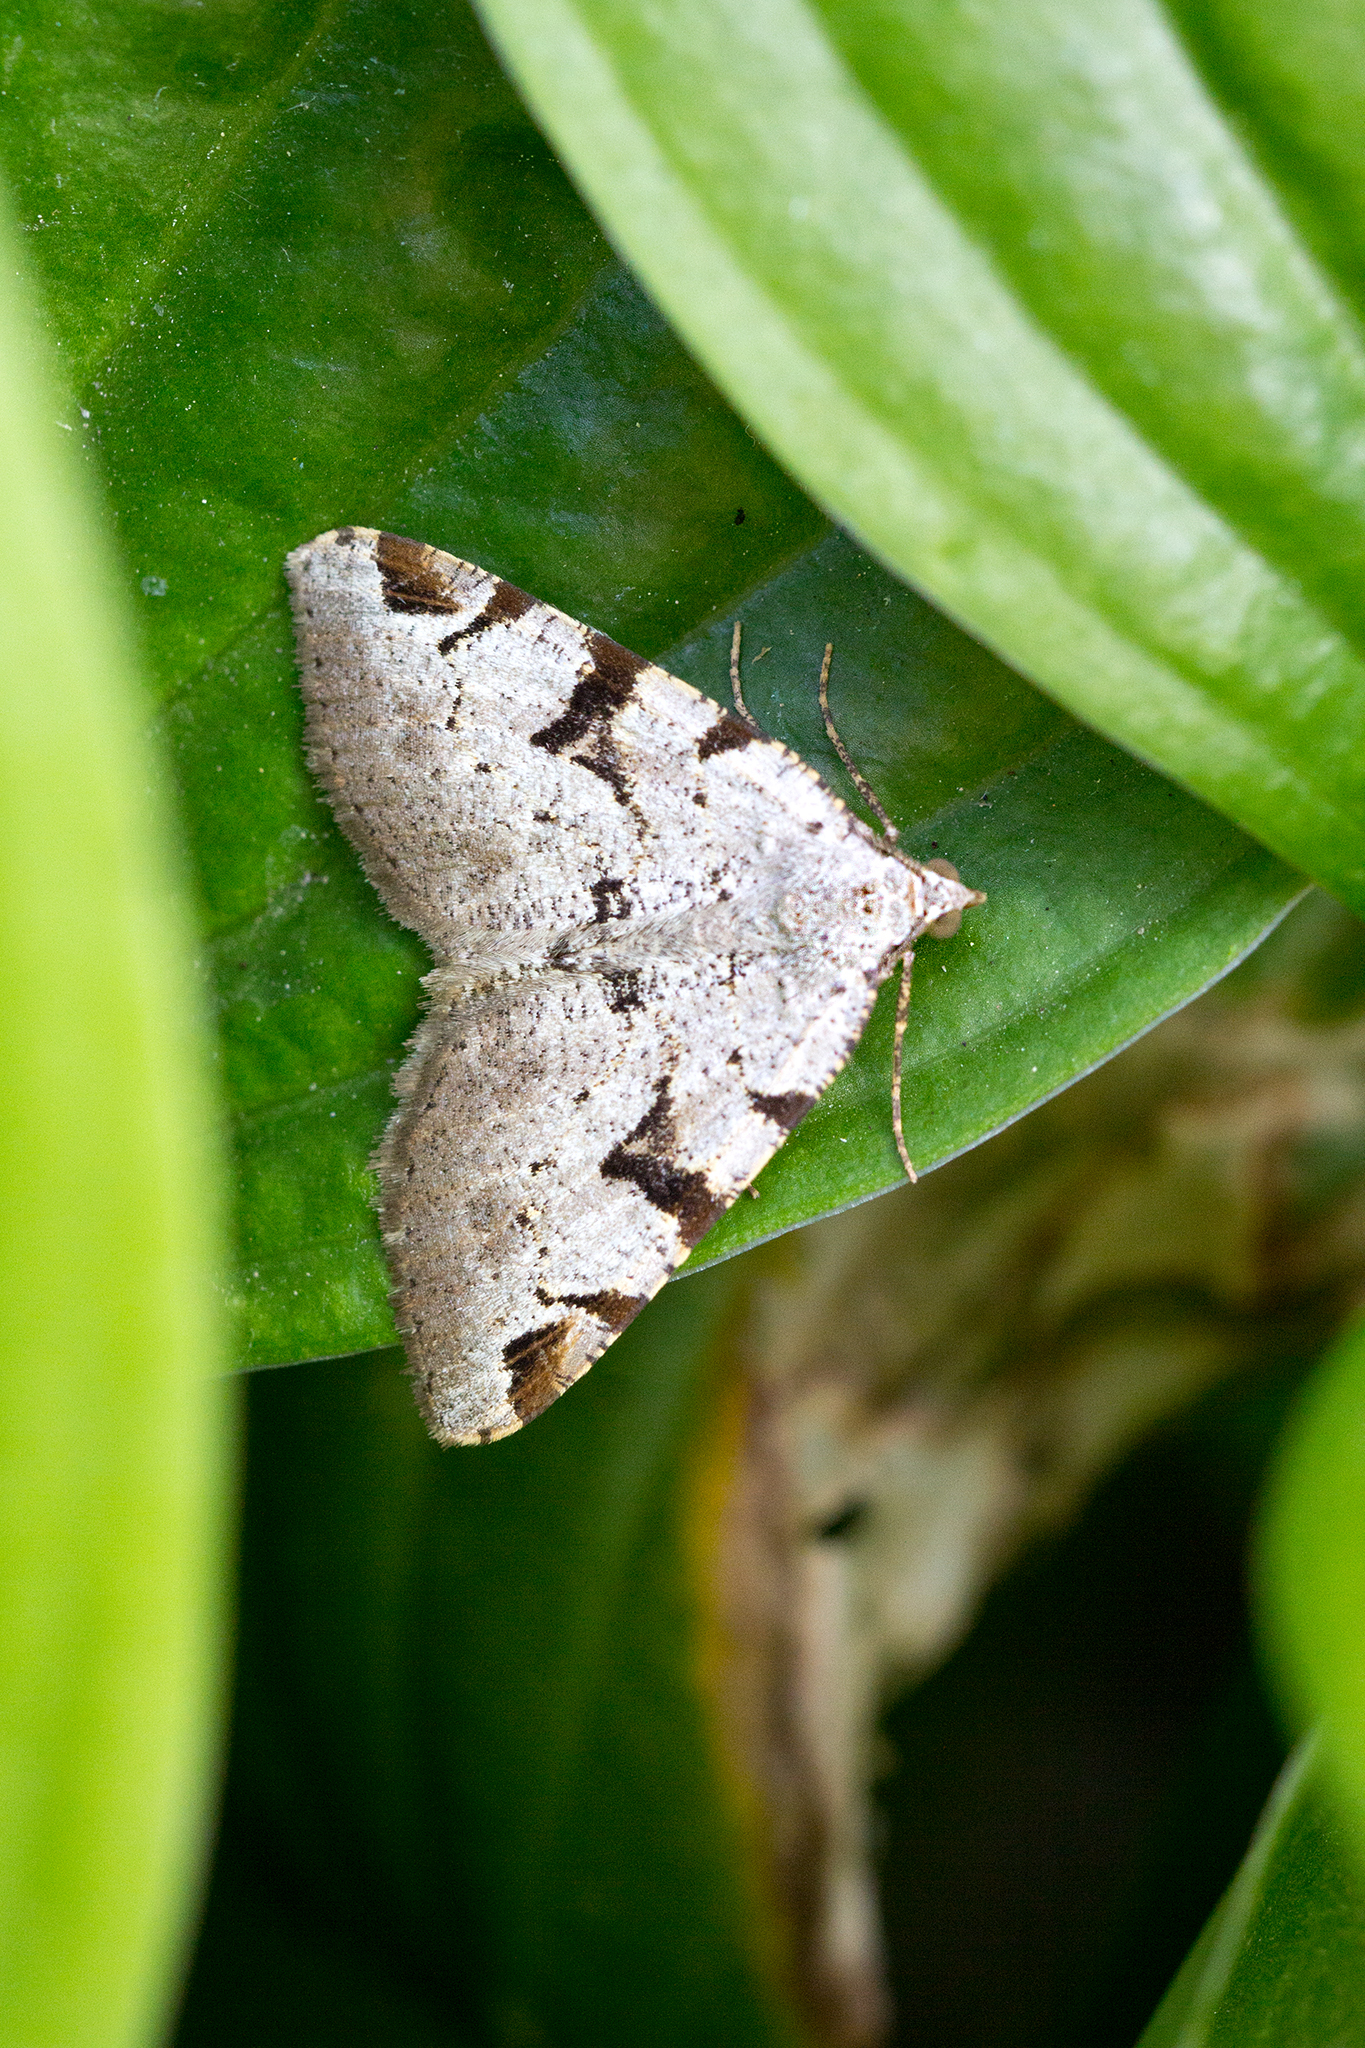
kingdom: Animalia
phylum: Arthropoda
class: Insecta
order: Lepidoptera
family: Geometridae
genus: Macaria
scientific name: Macaria wauaria
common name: V-moth
